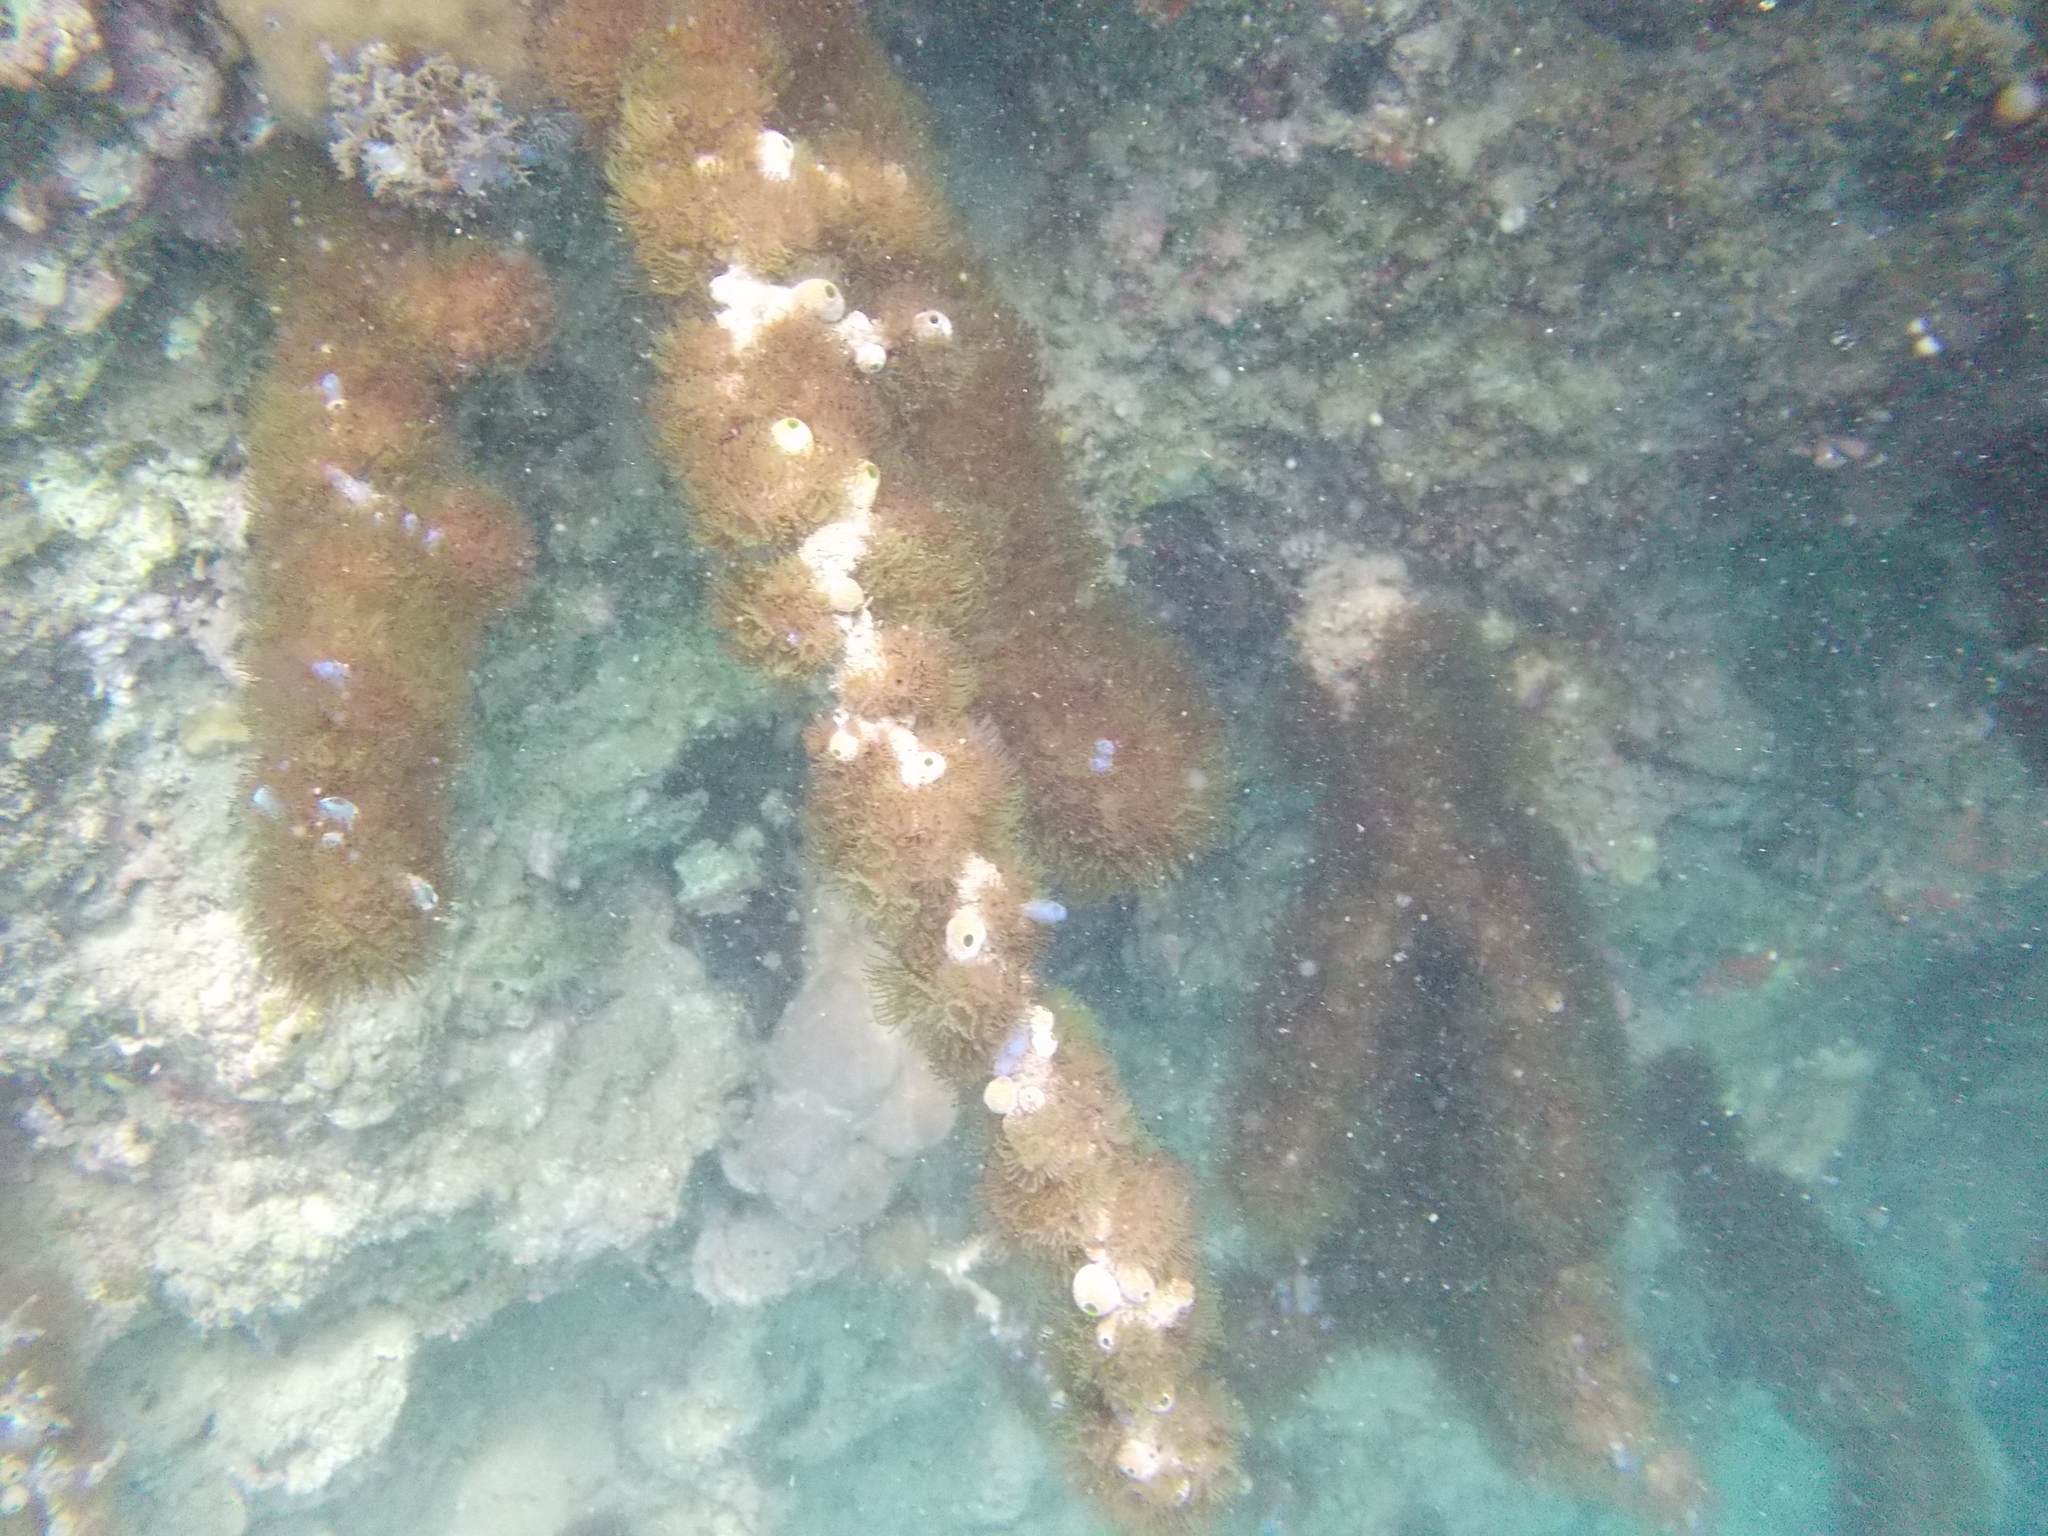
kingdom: Animalia
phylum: Cnidaria
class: Anthozoa
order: Zoantharia
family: Zoanthidae
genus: Acrozoanthus
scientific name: Acrozoanthus australiae
